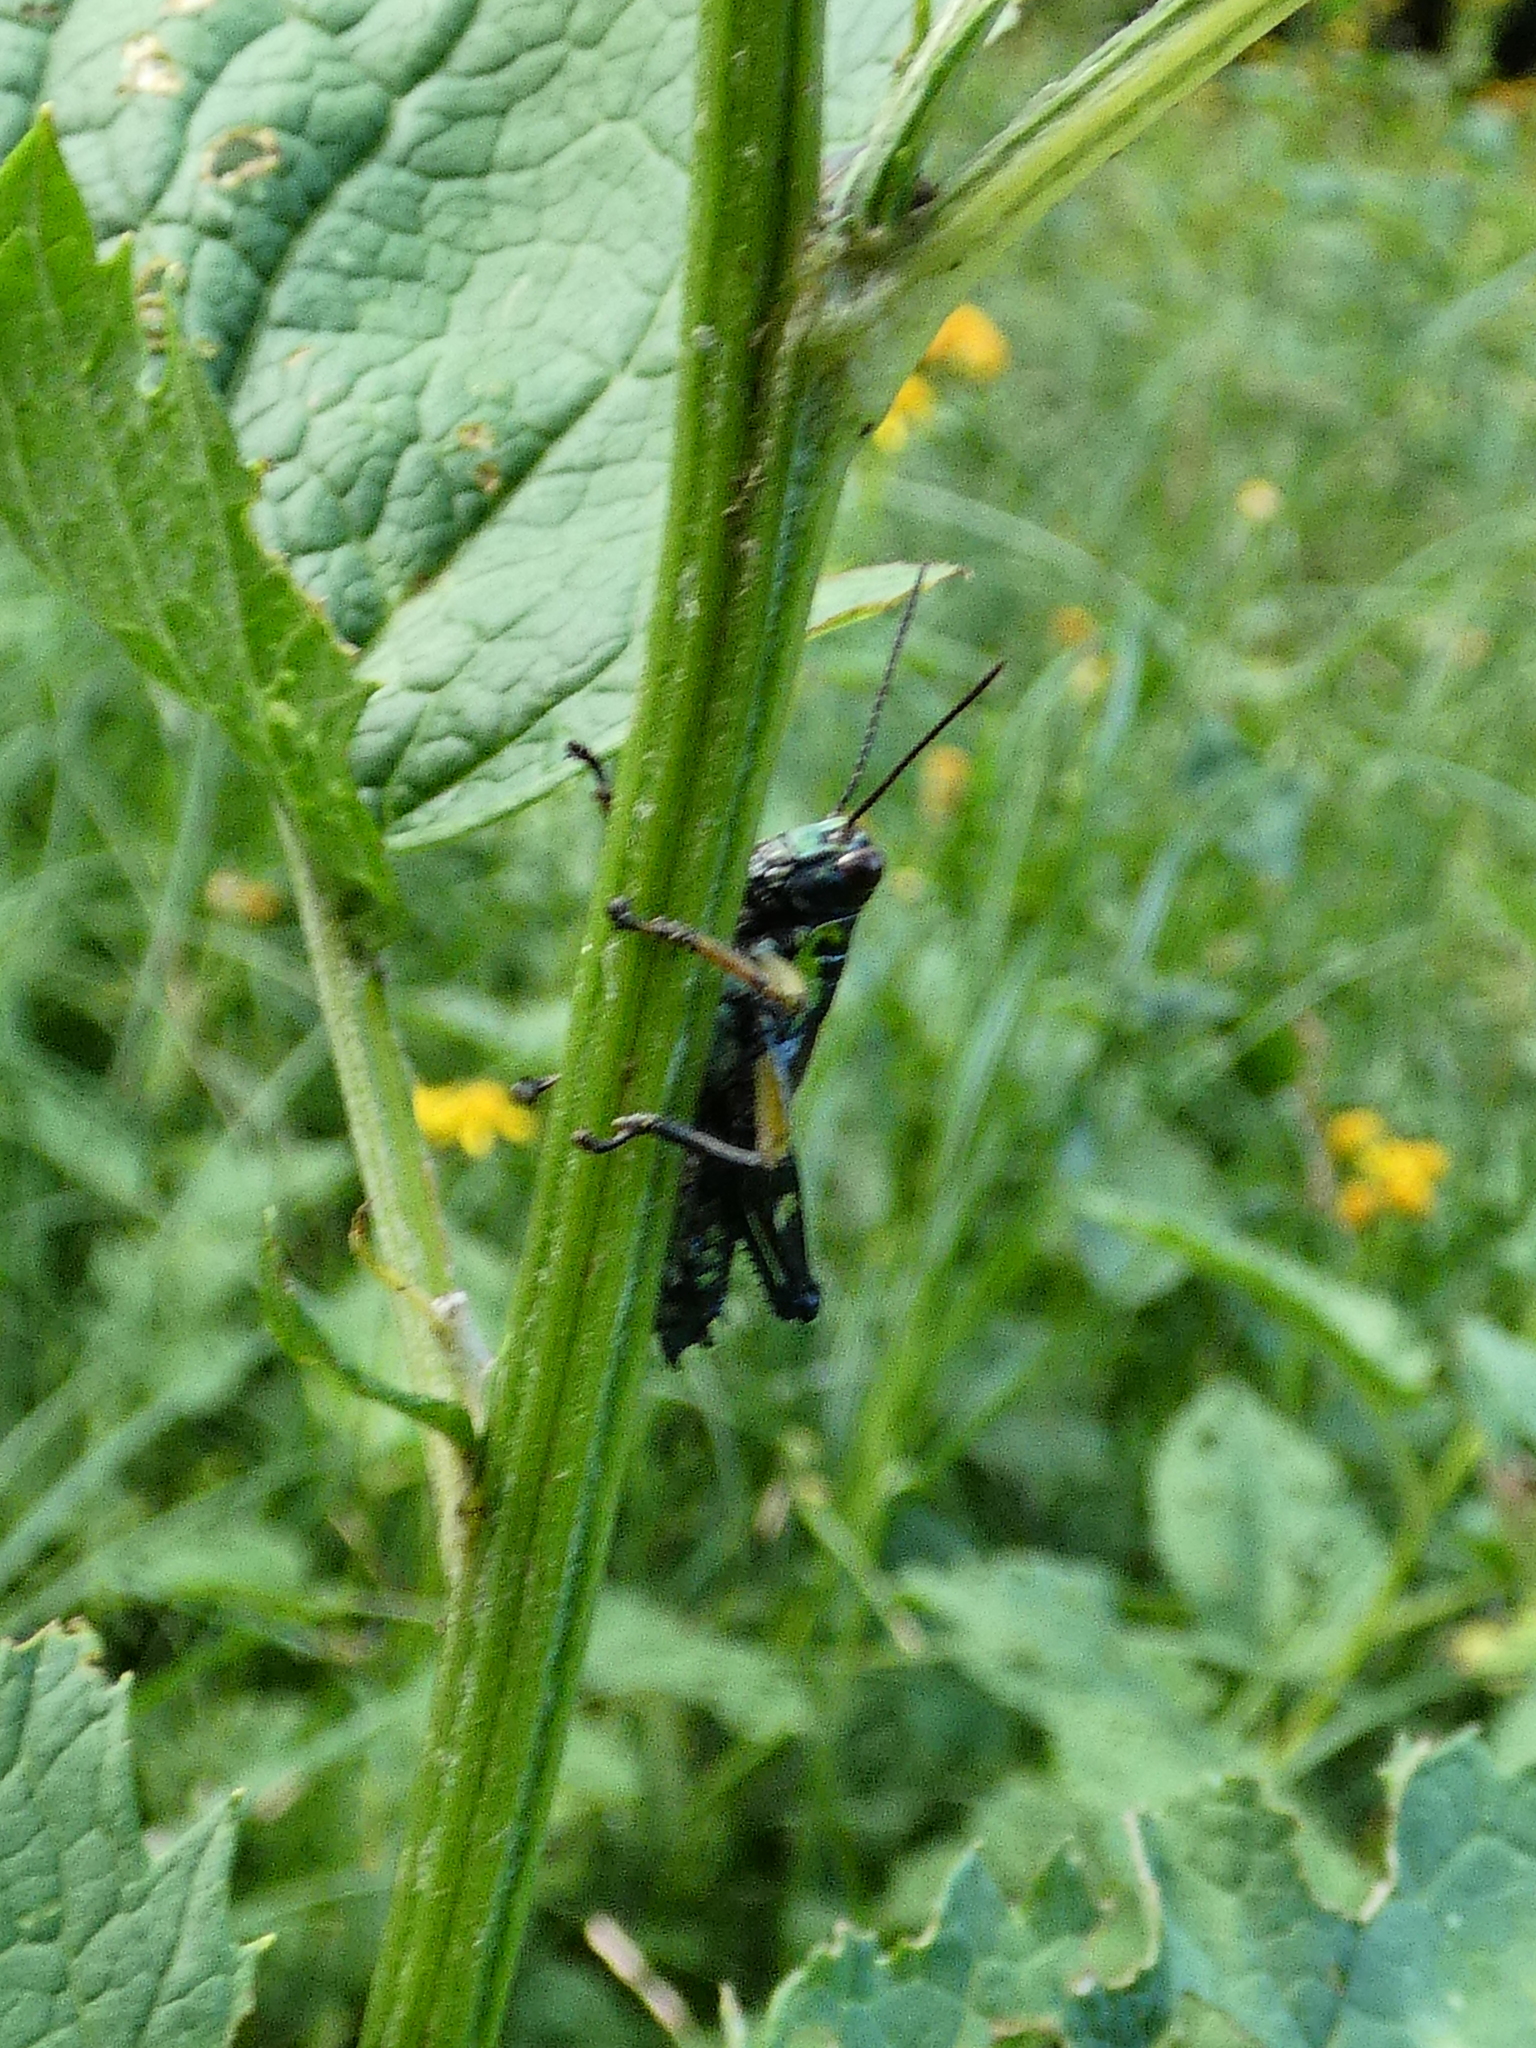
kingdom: Animalia
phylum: Arthropoda
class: Insecta
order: Orthoptera
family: Acrididae
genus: Miramella
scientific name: Miramella alpina
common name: Green mountain grasshopper
